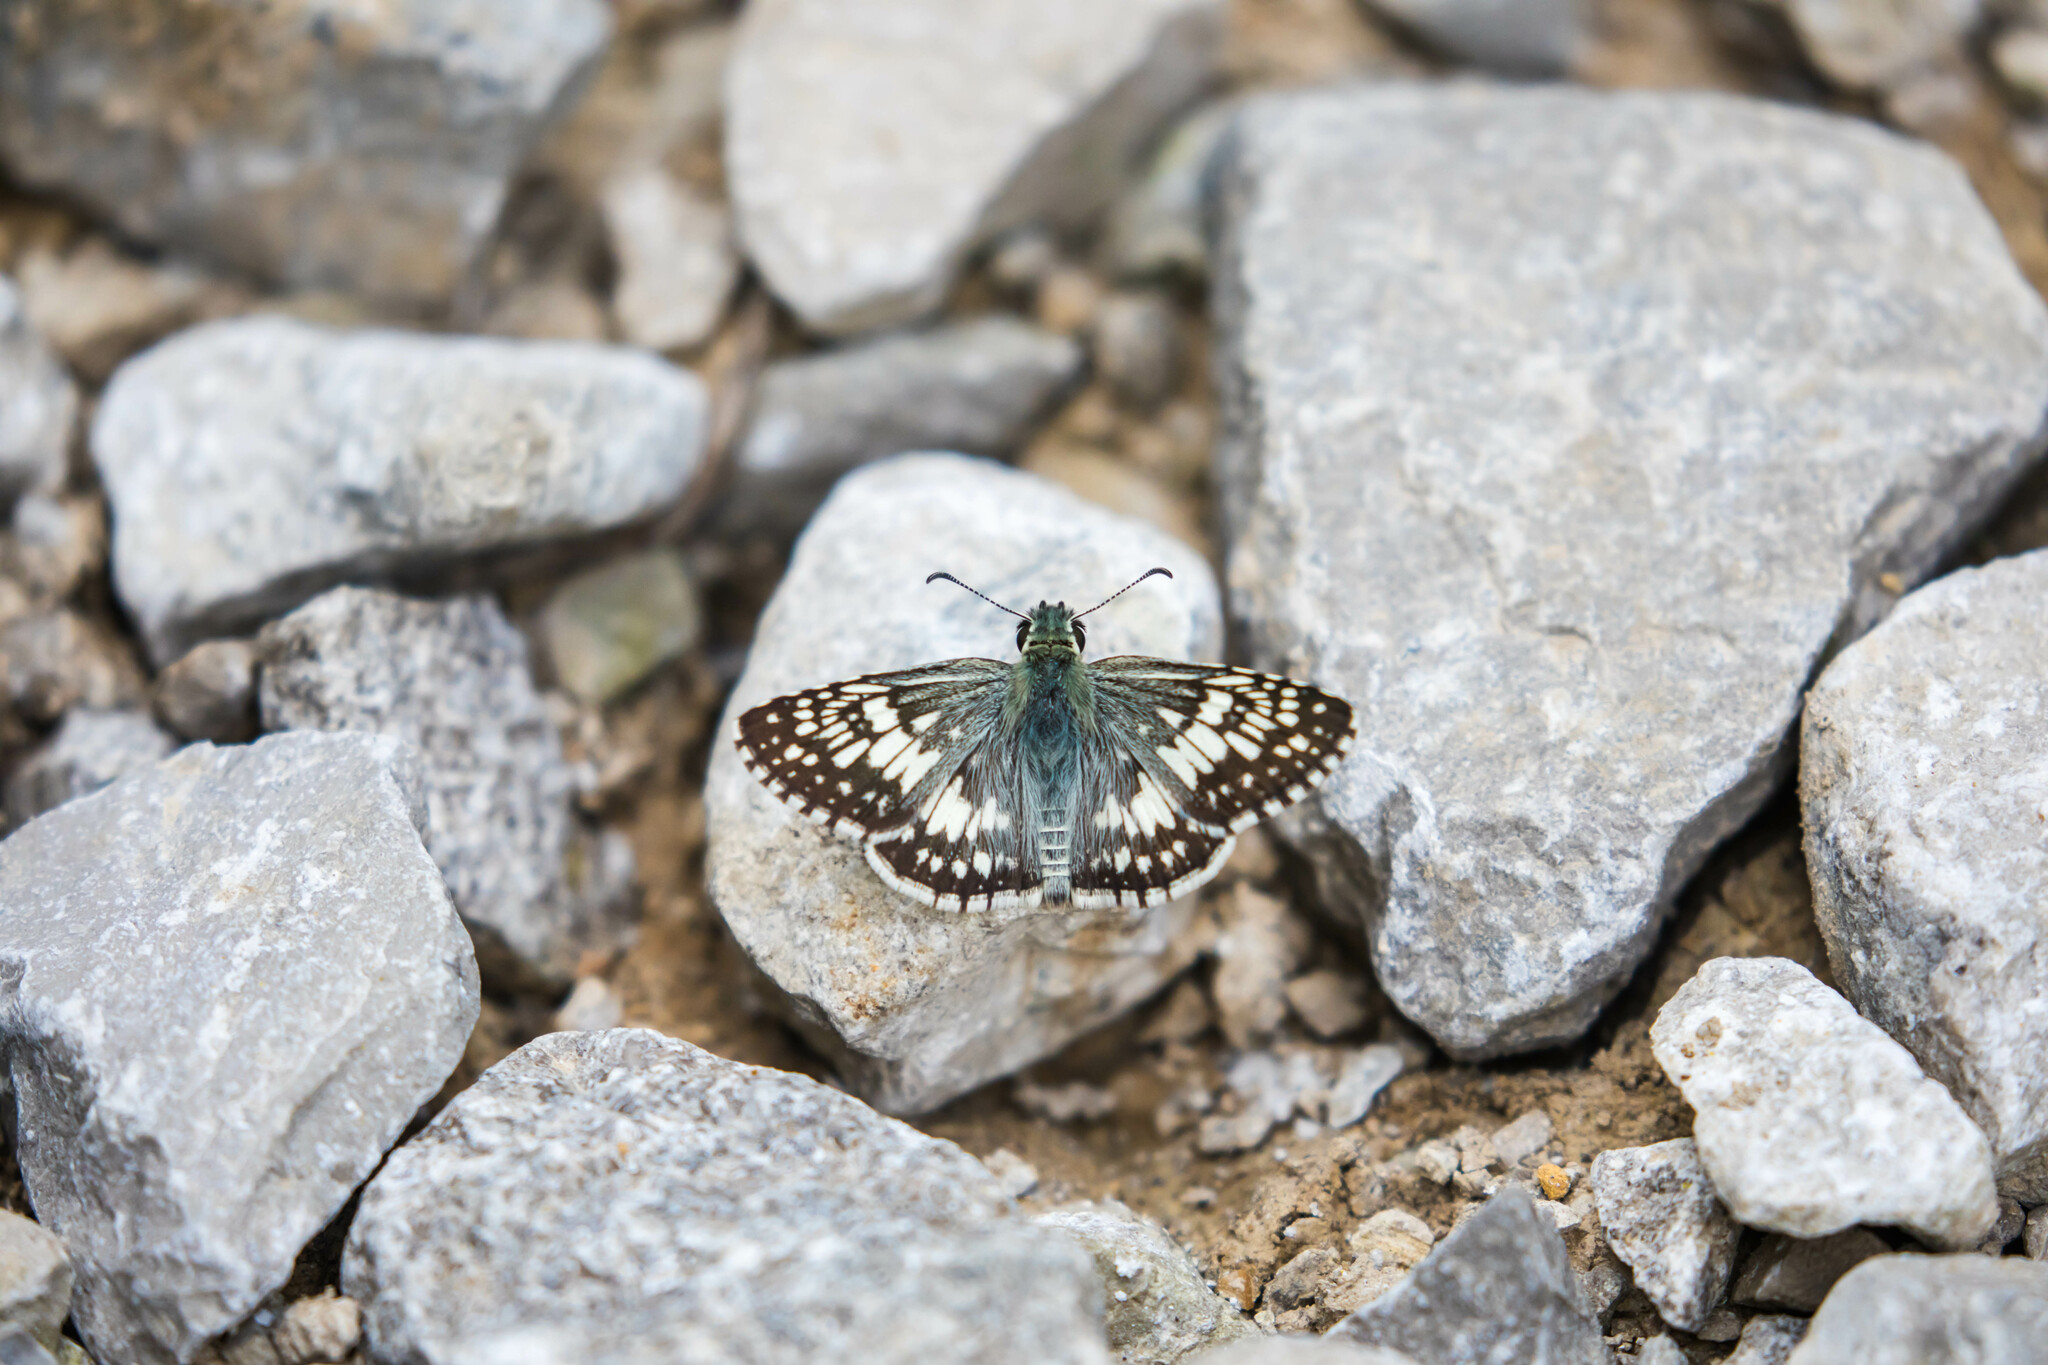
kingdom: Animalia
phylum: Arthropoda
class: Insecta
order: Lepidoptera
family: Hesperiidae
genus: Burnsius
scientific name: Burnsius communis
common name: Common checkered-skipper
